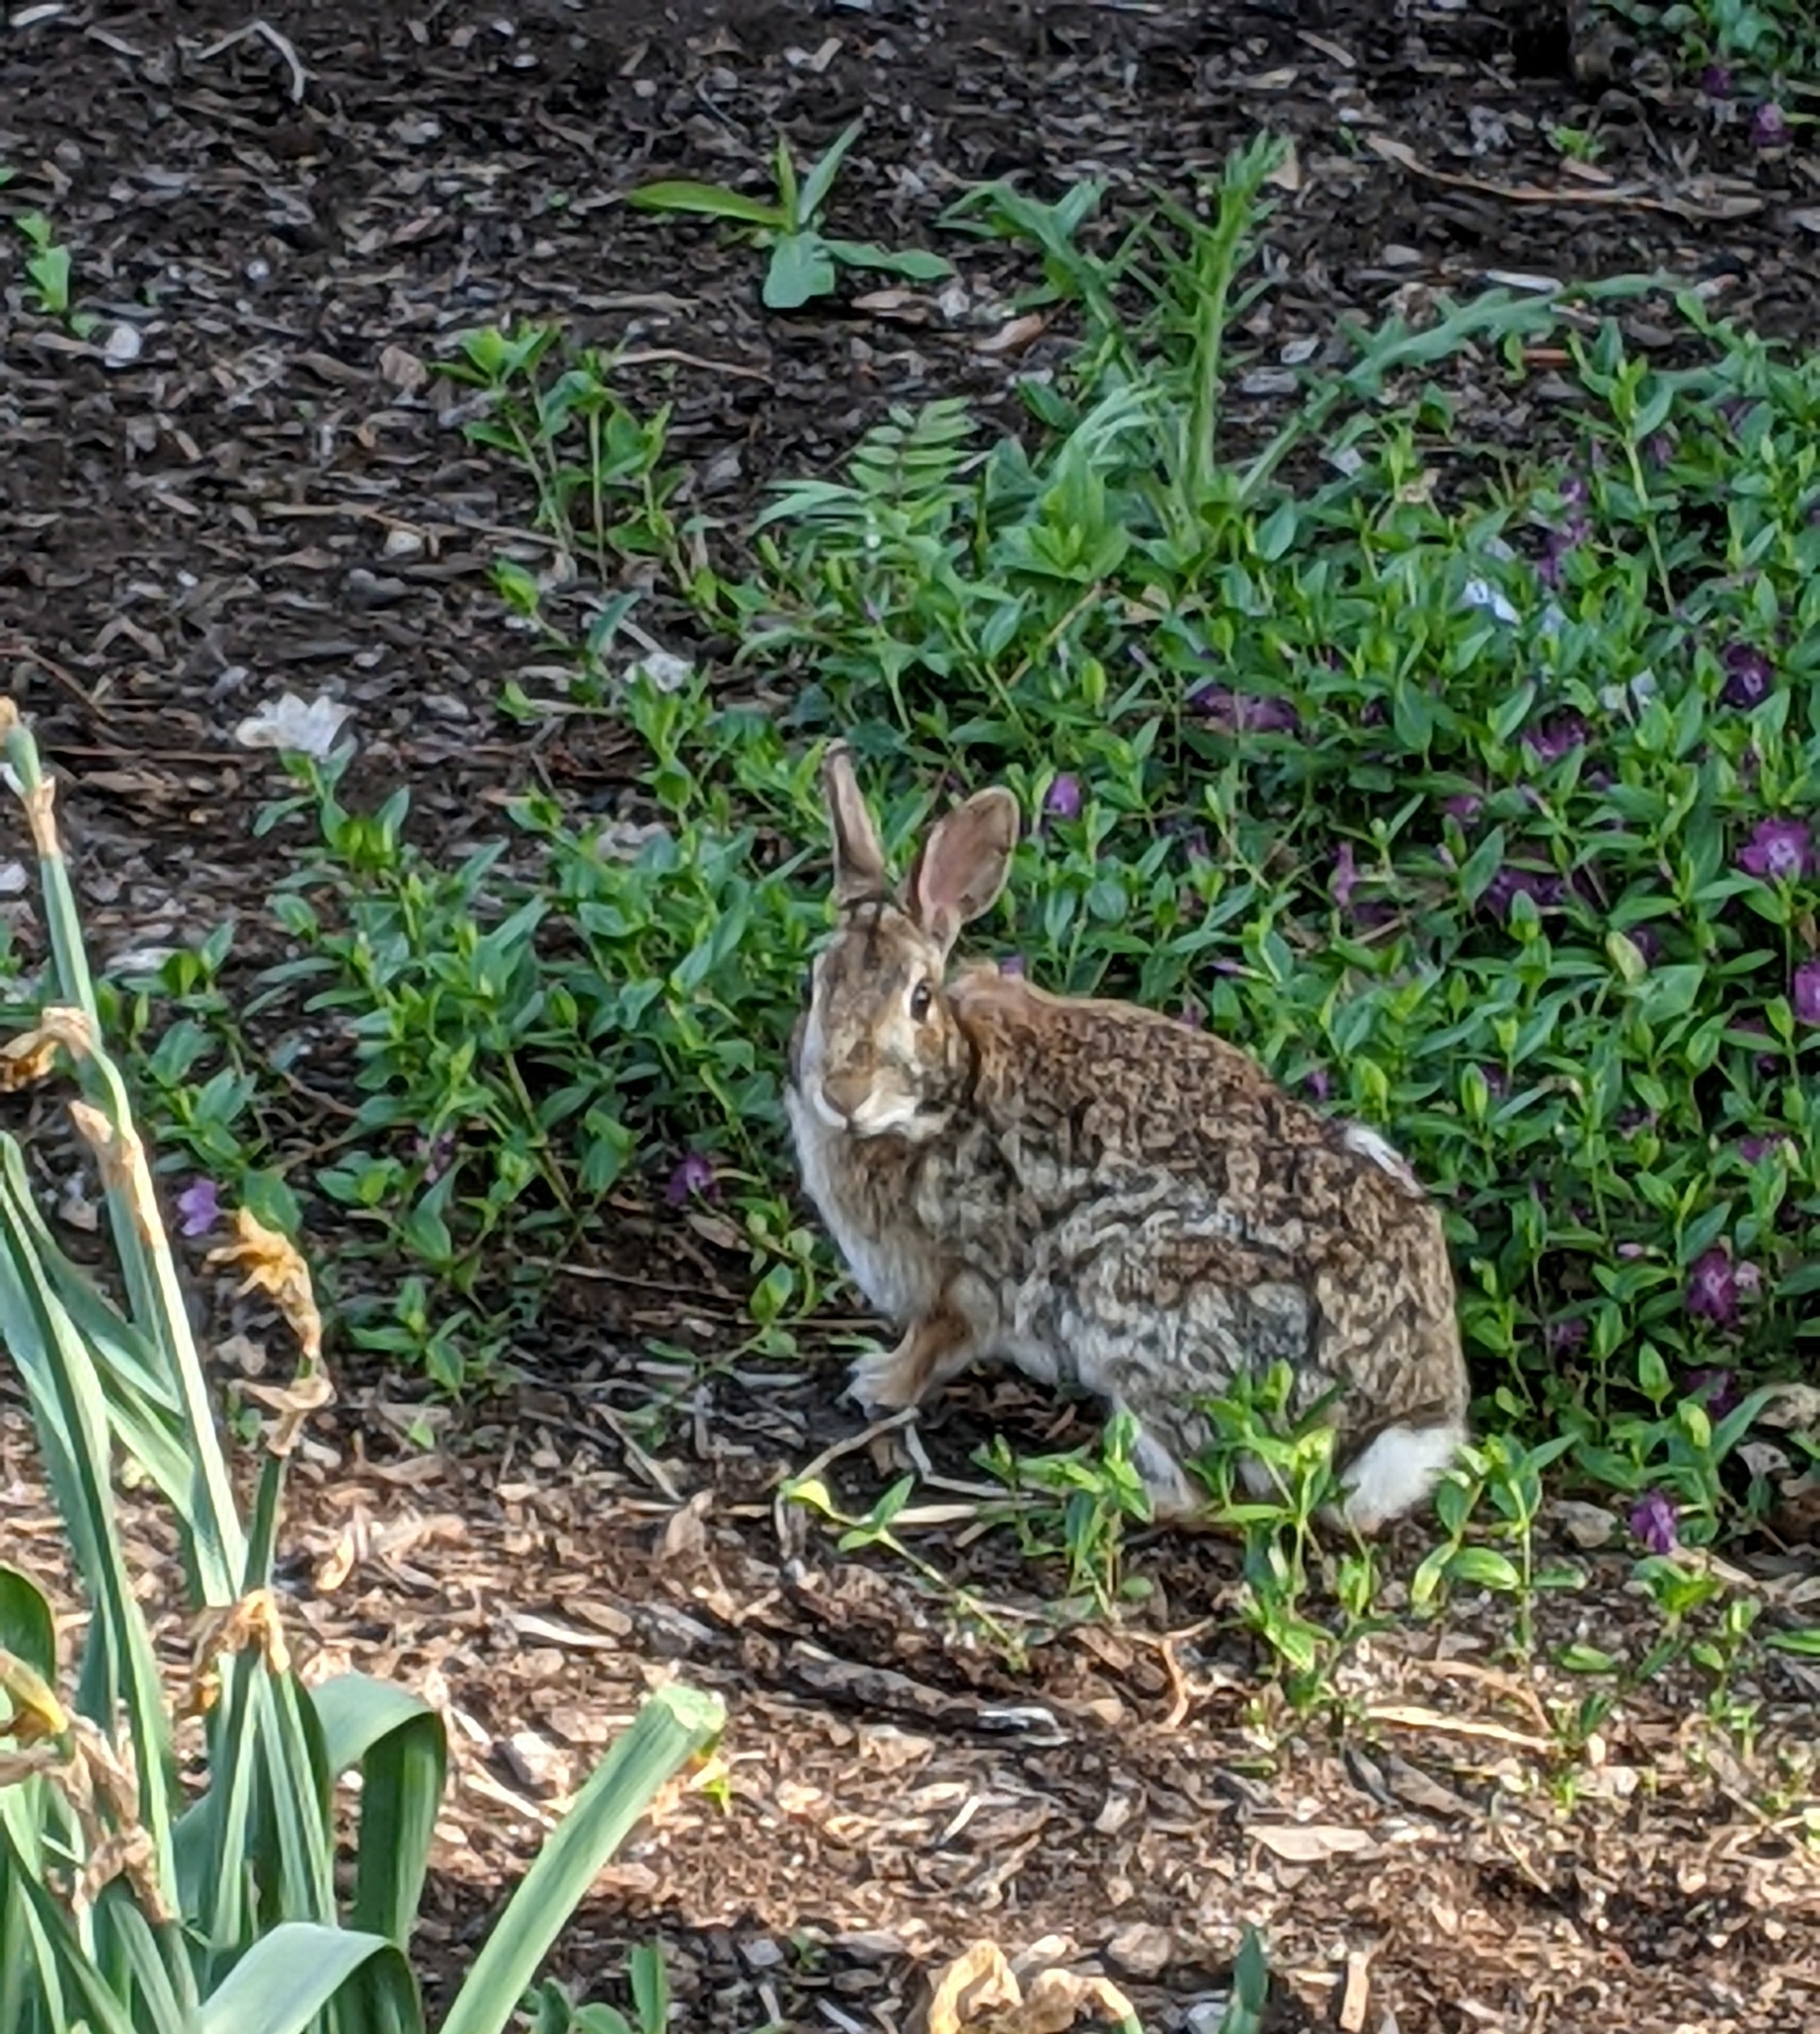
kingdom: Animalia
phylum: Chordata
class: Mammalia
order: Lagomorpha
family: Leporidae
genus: Sylvilagus
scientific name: Sylvilagus floridanus
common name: Eastern cottontail
